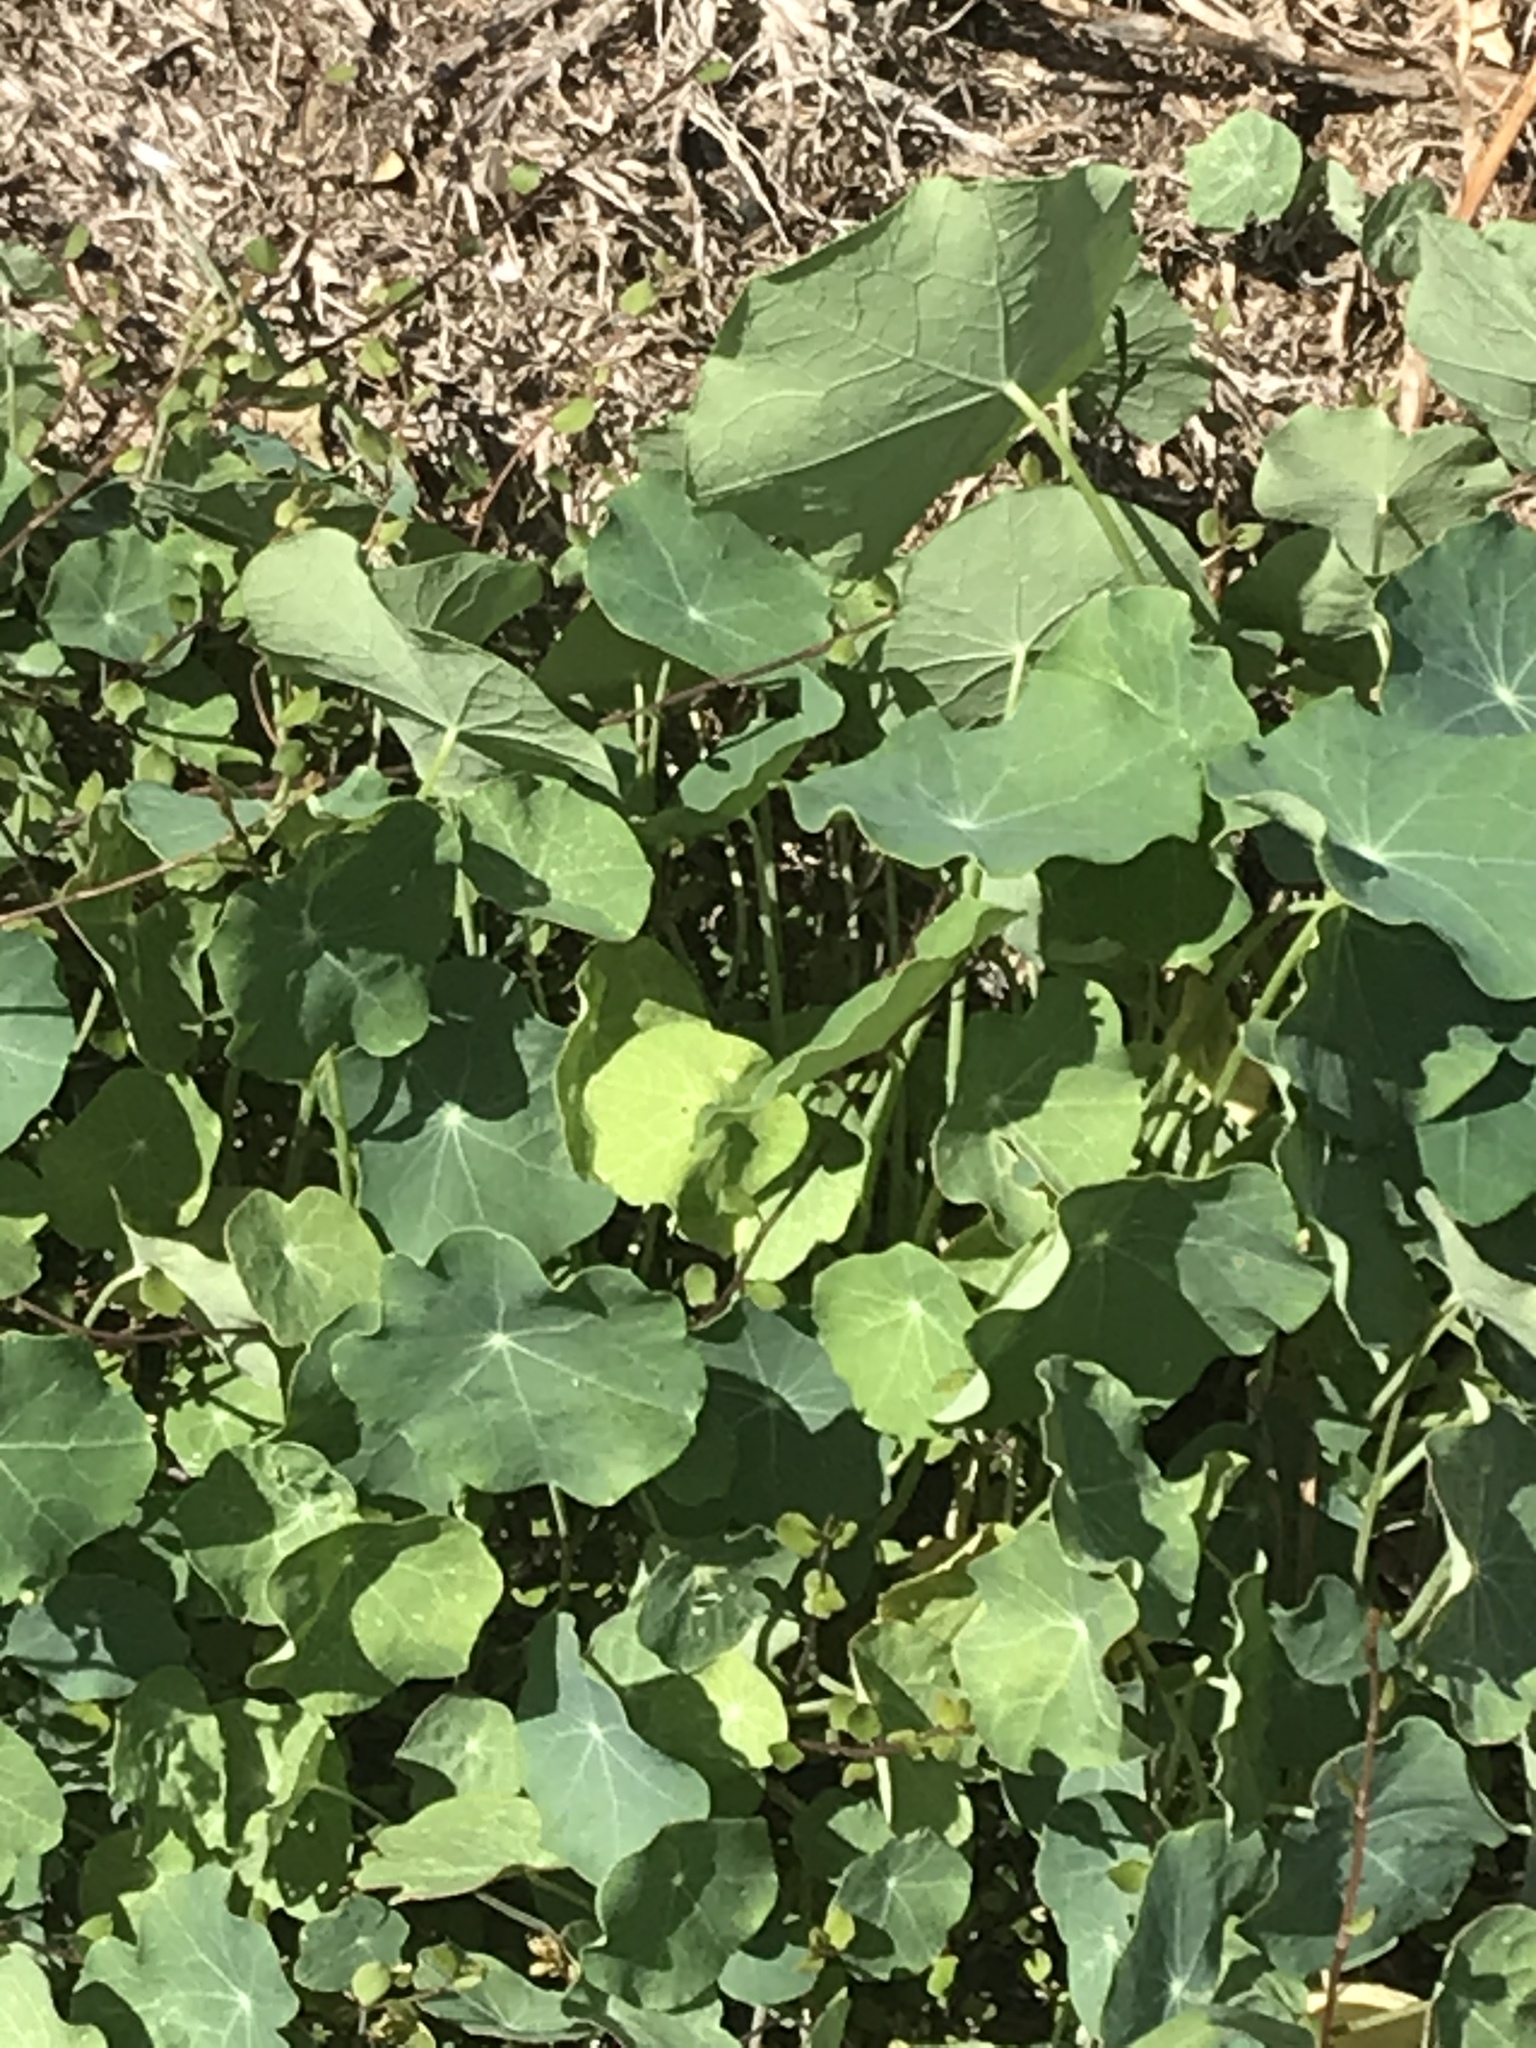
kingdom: Plantae
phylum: Tracheophyta
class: Magnoliopsida
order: Brassicales
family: Tropaeolaceae
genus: Tropaeolum
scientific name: Tropaeolum majus
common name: Nasturtium
